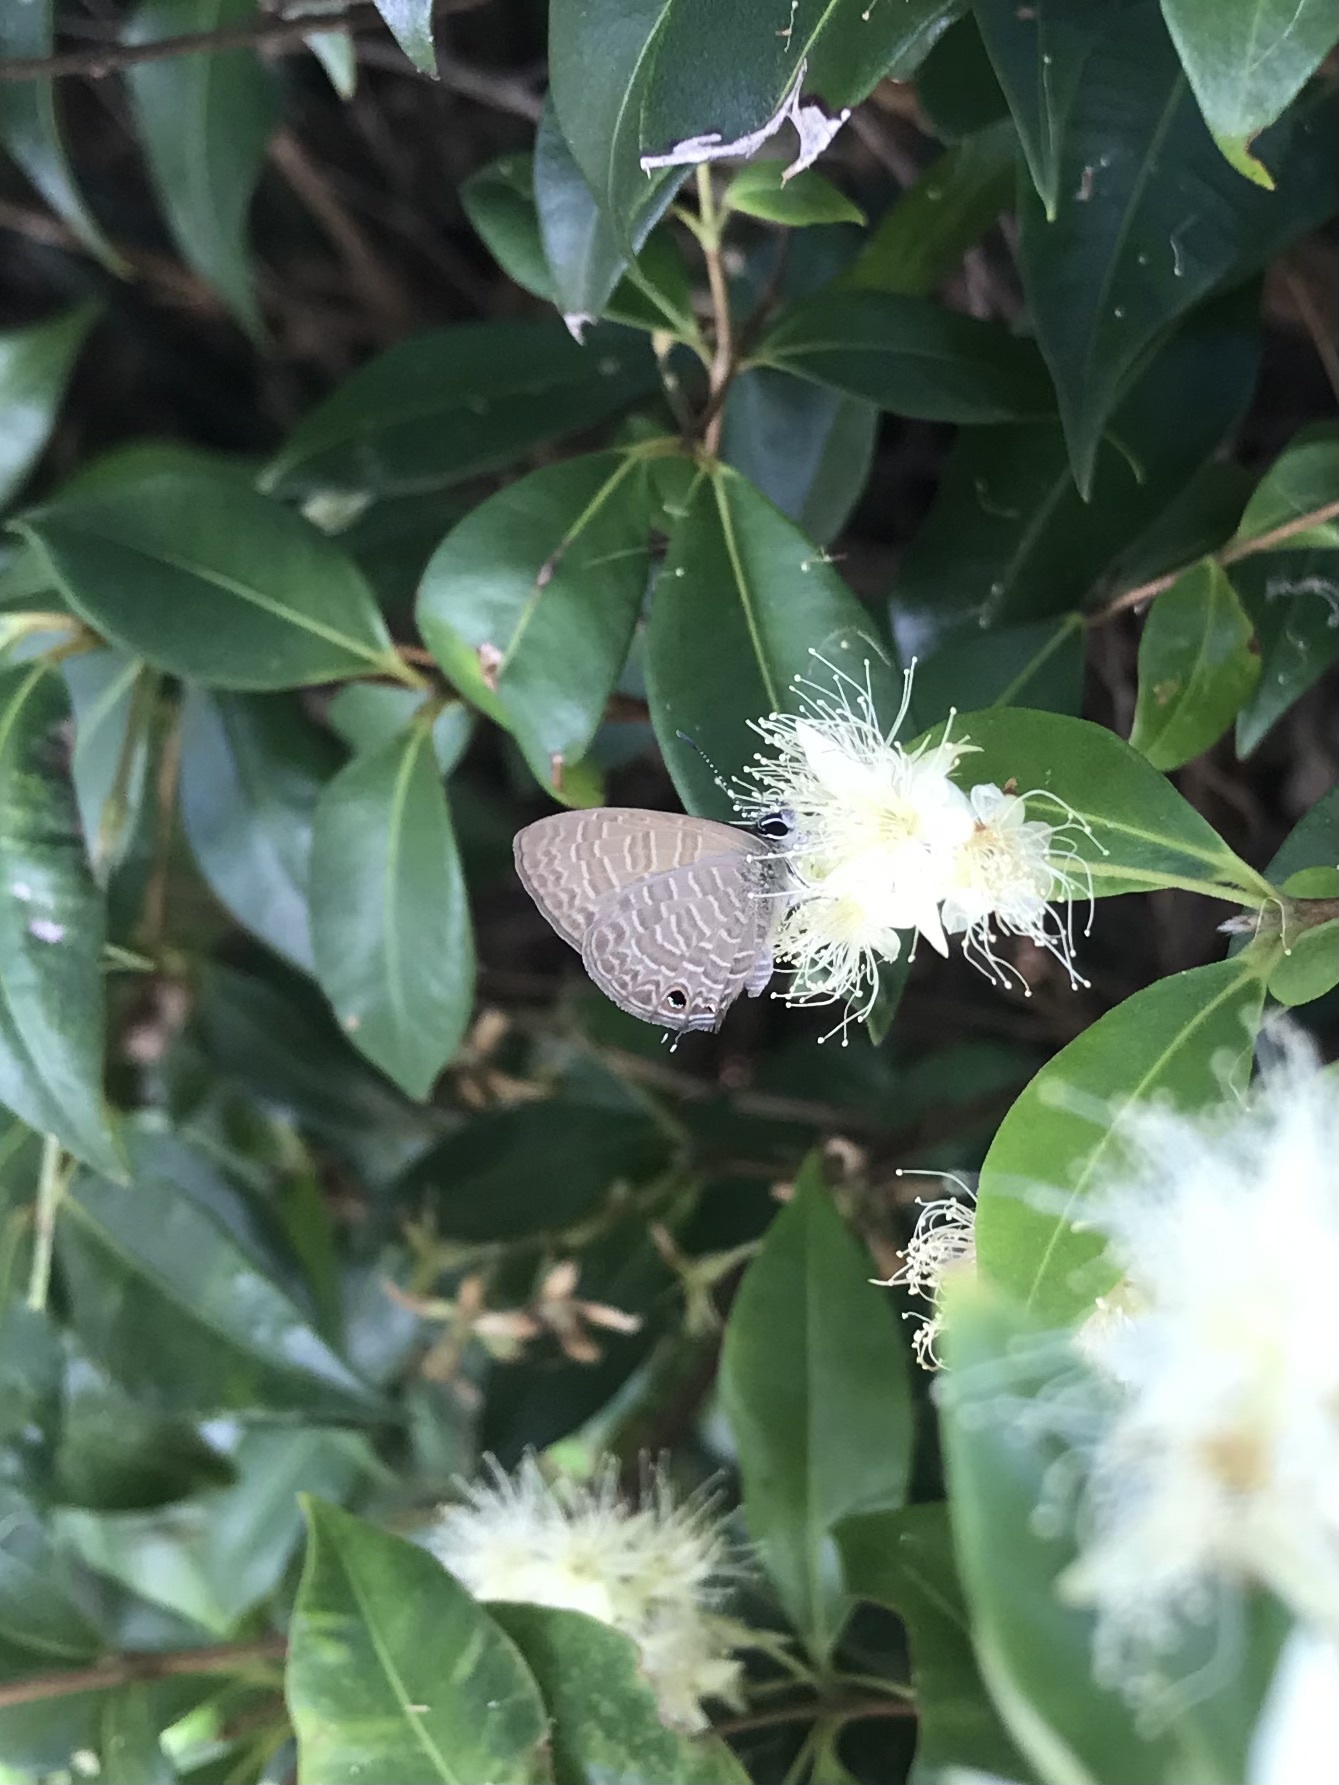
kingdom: Animalia
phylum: Arthropoda
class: Insecta
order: Lepidoptera
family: Lycaenidae
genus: Nacaduba
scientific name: Nacaduba berenice
